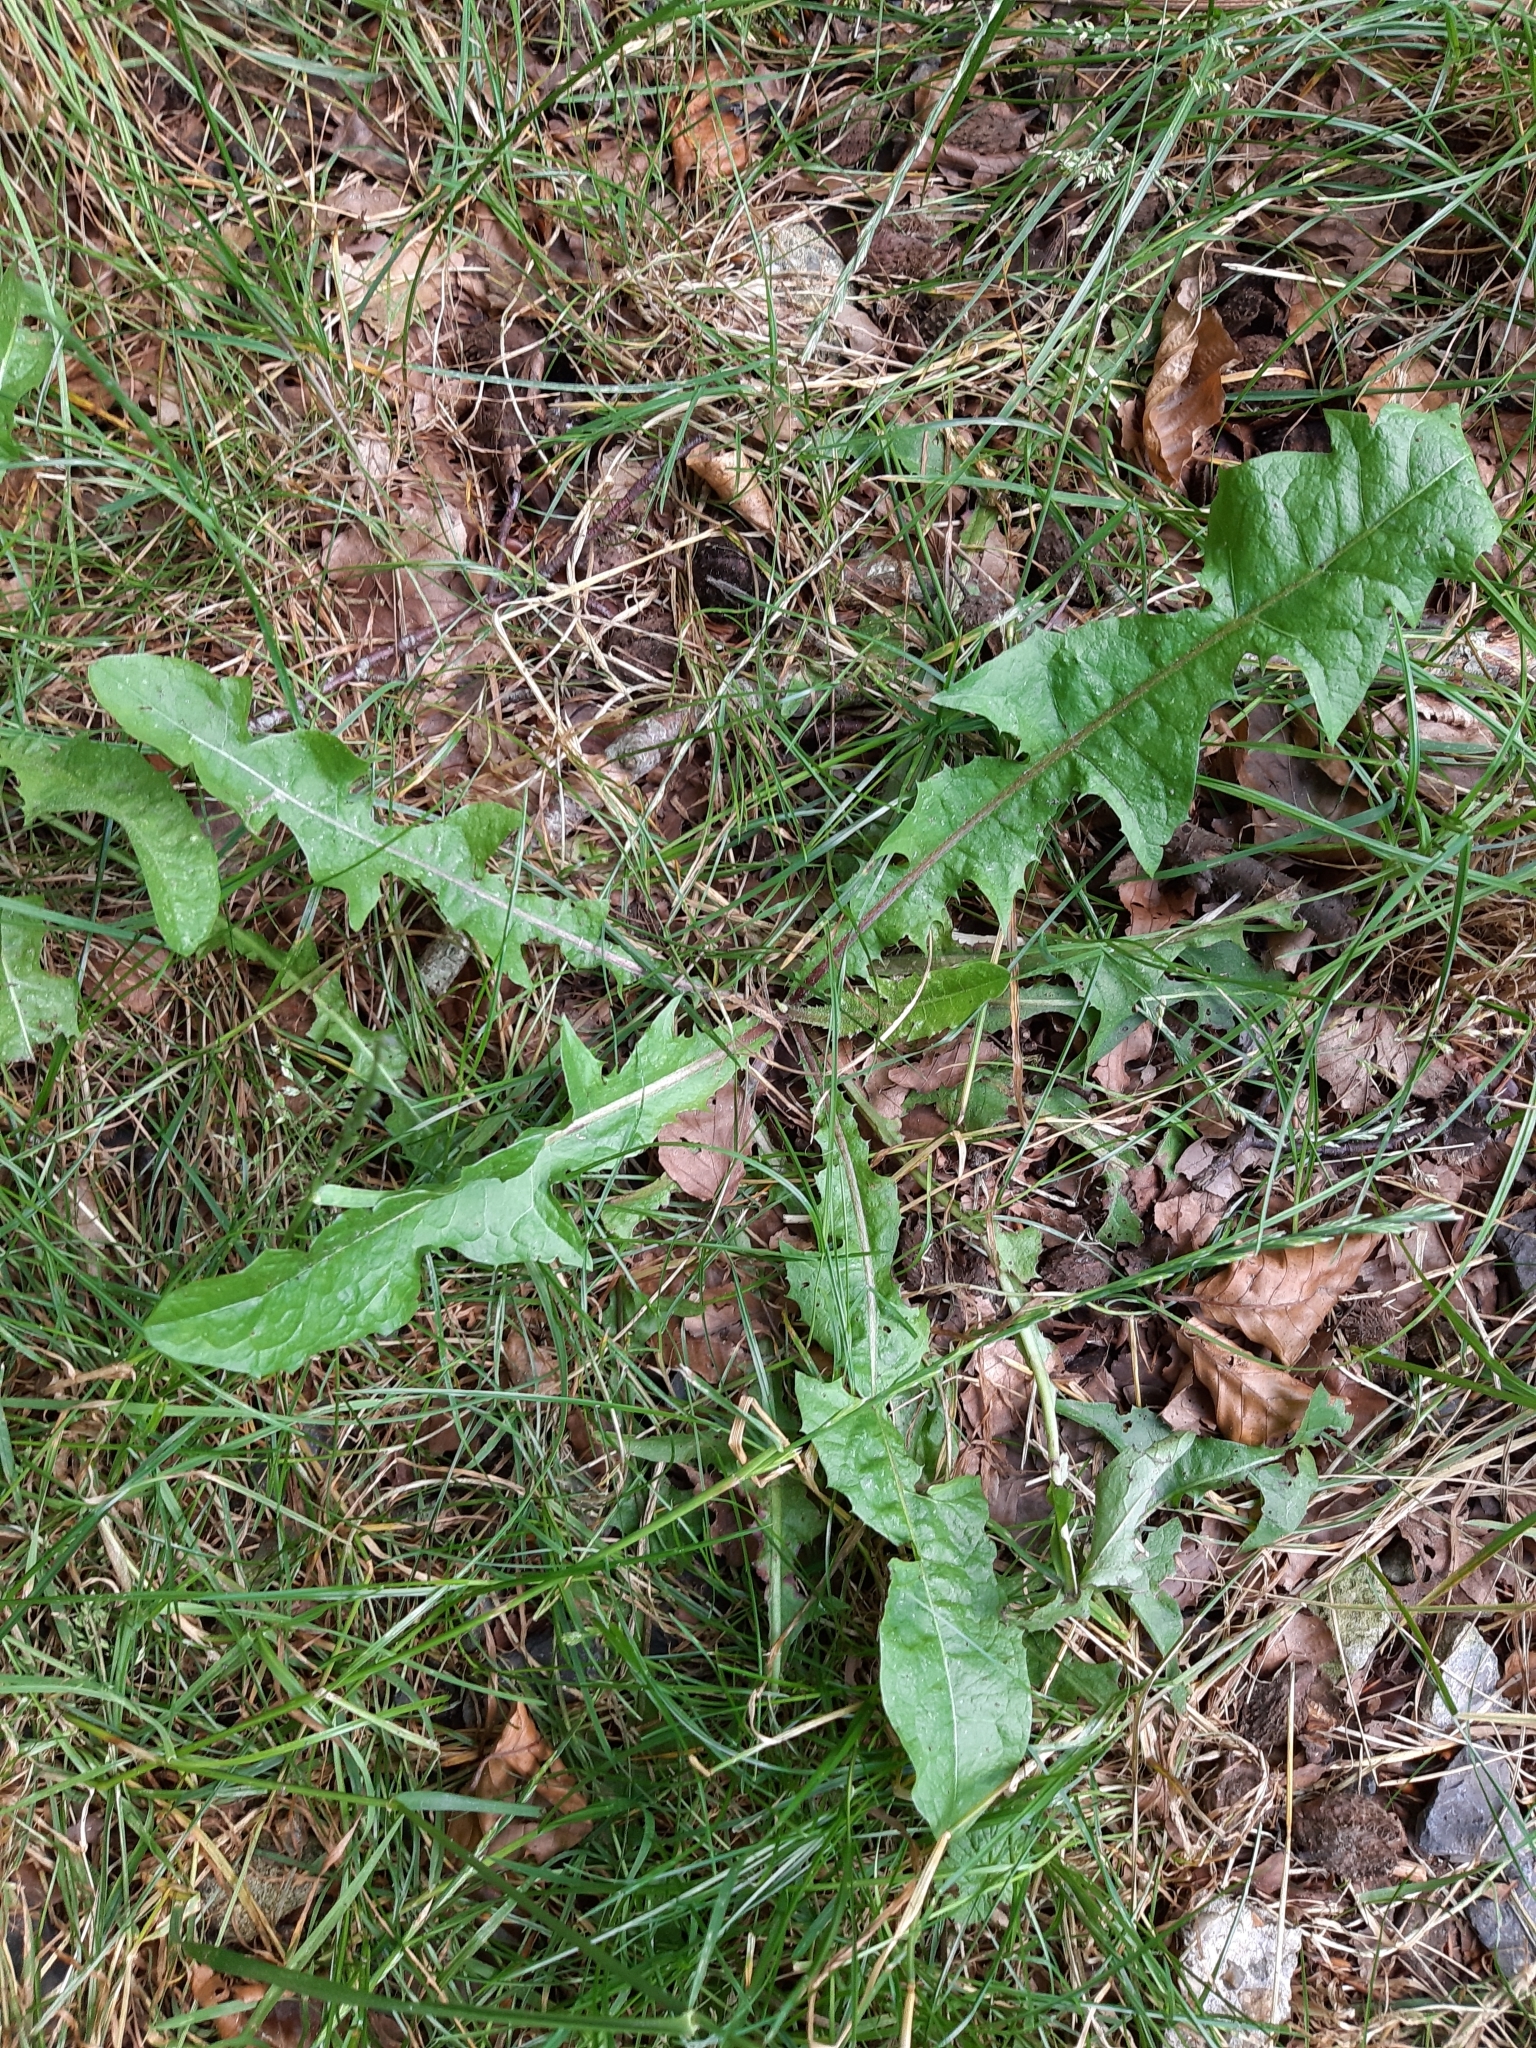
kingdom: Plantae
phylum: Tracheophyta
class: Magnoliopsida
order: Asterales
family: Asteraceae
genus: Taraxacum
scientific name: Taraxacum officinale
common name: Common dandelion
